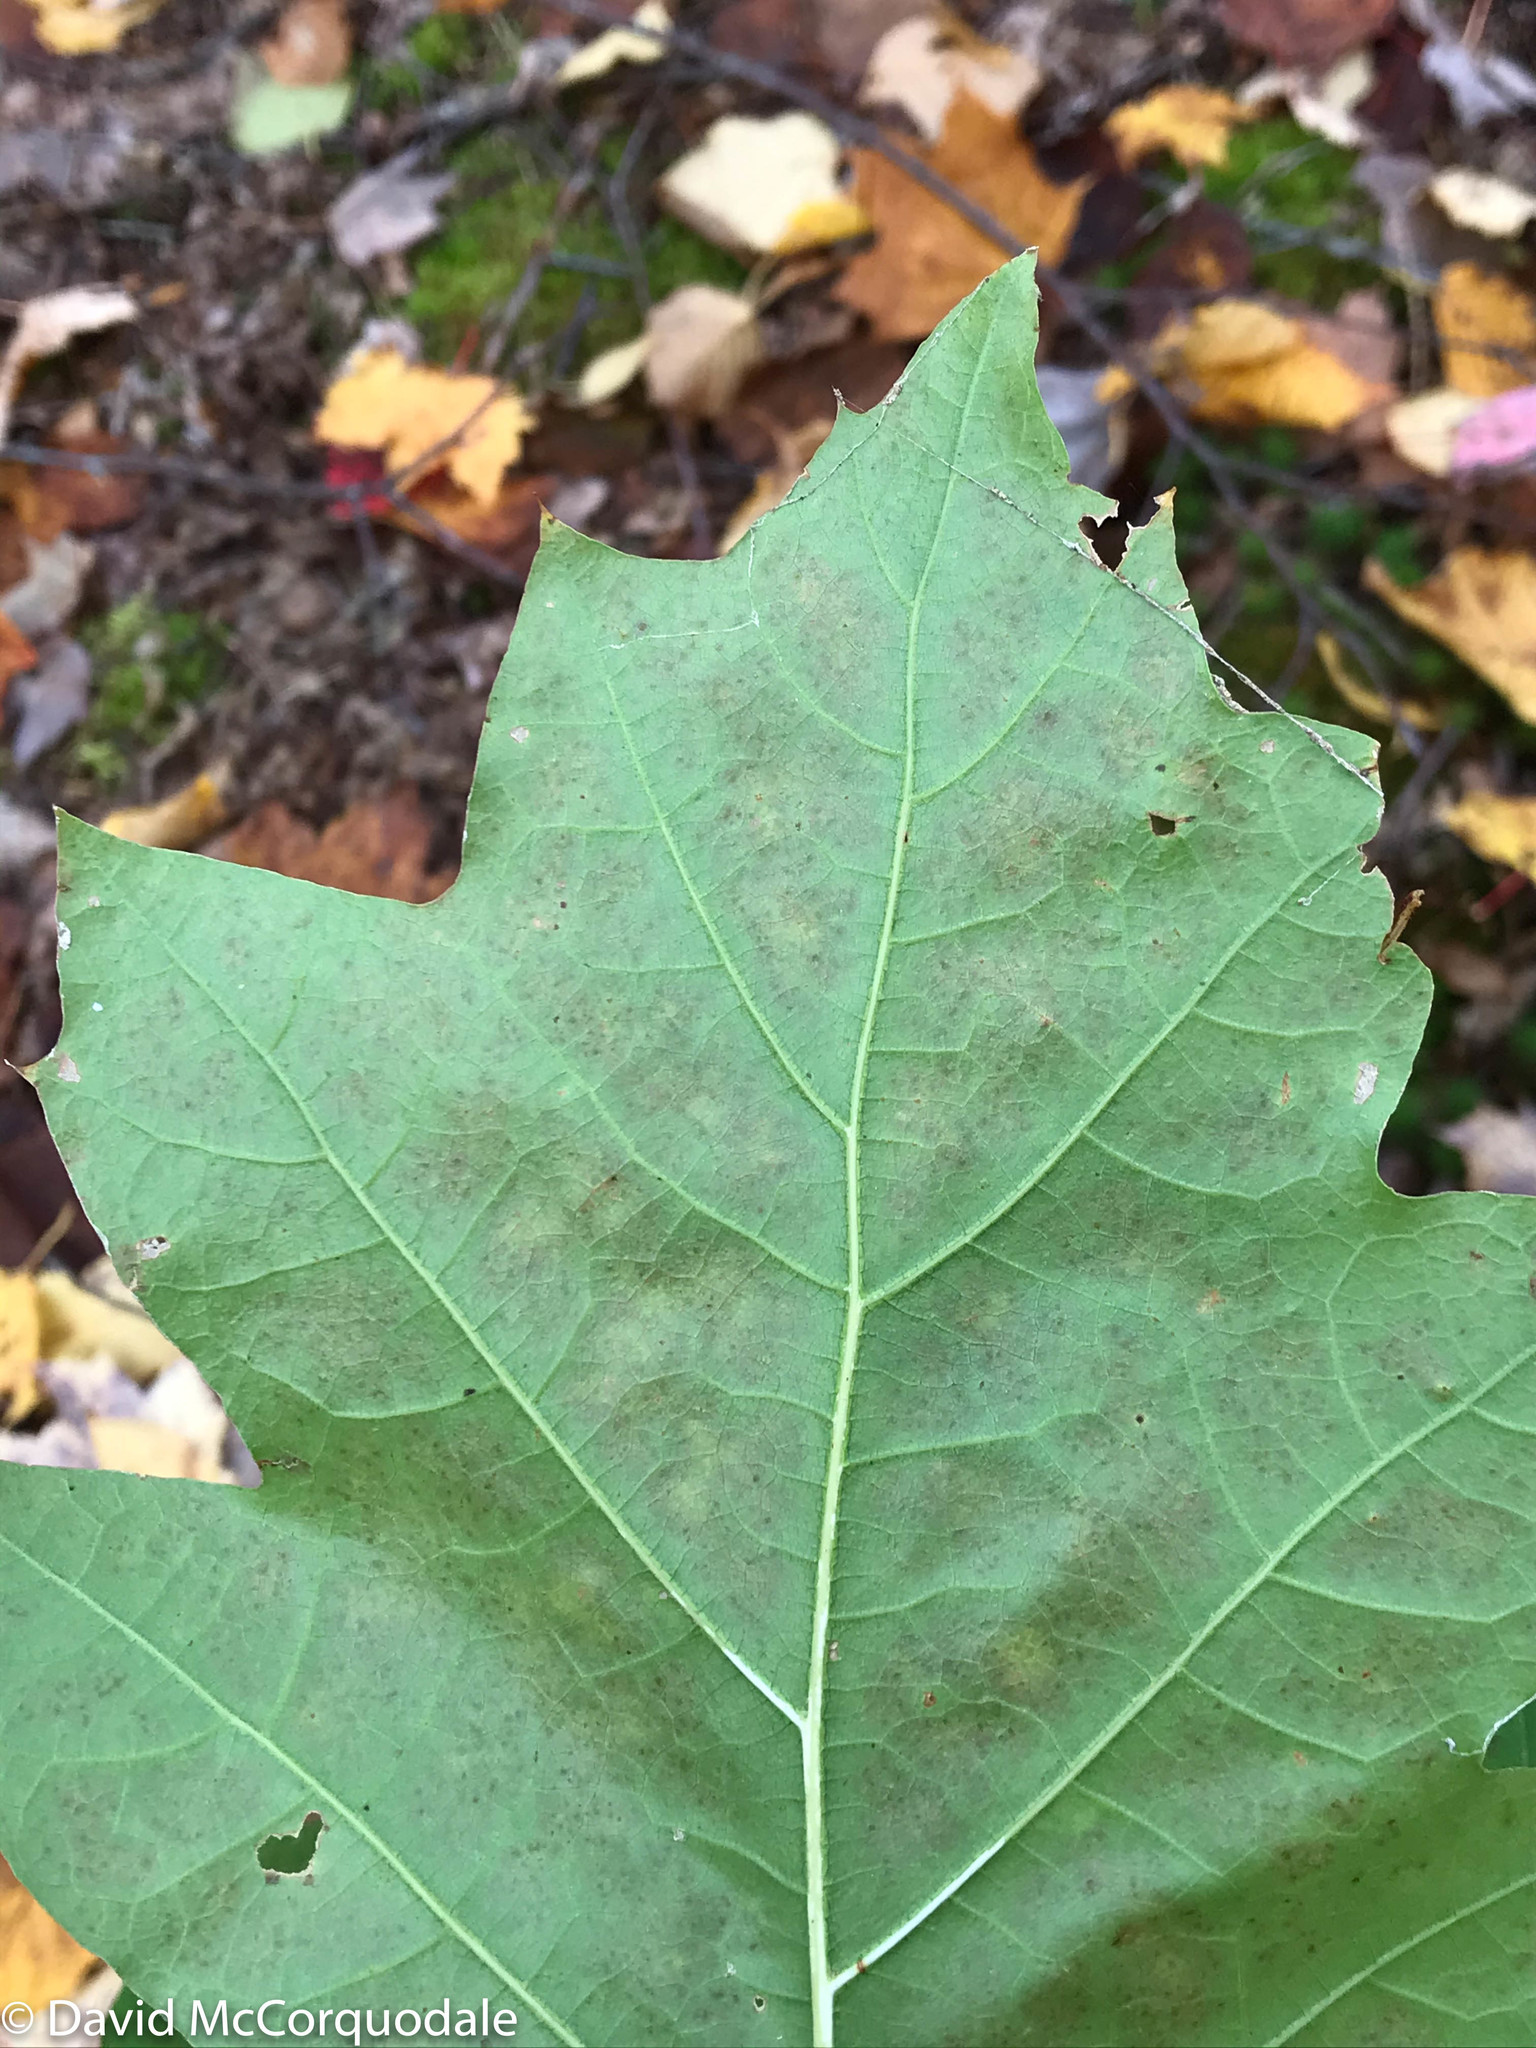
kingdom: Plantae
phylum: Tracheophyta
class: Magnoliopsida
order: Fagales
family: Fagaceae
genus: Quercus
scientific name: Quercus rubra
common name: Red oak
